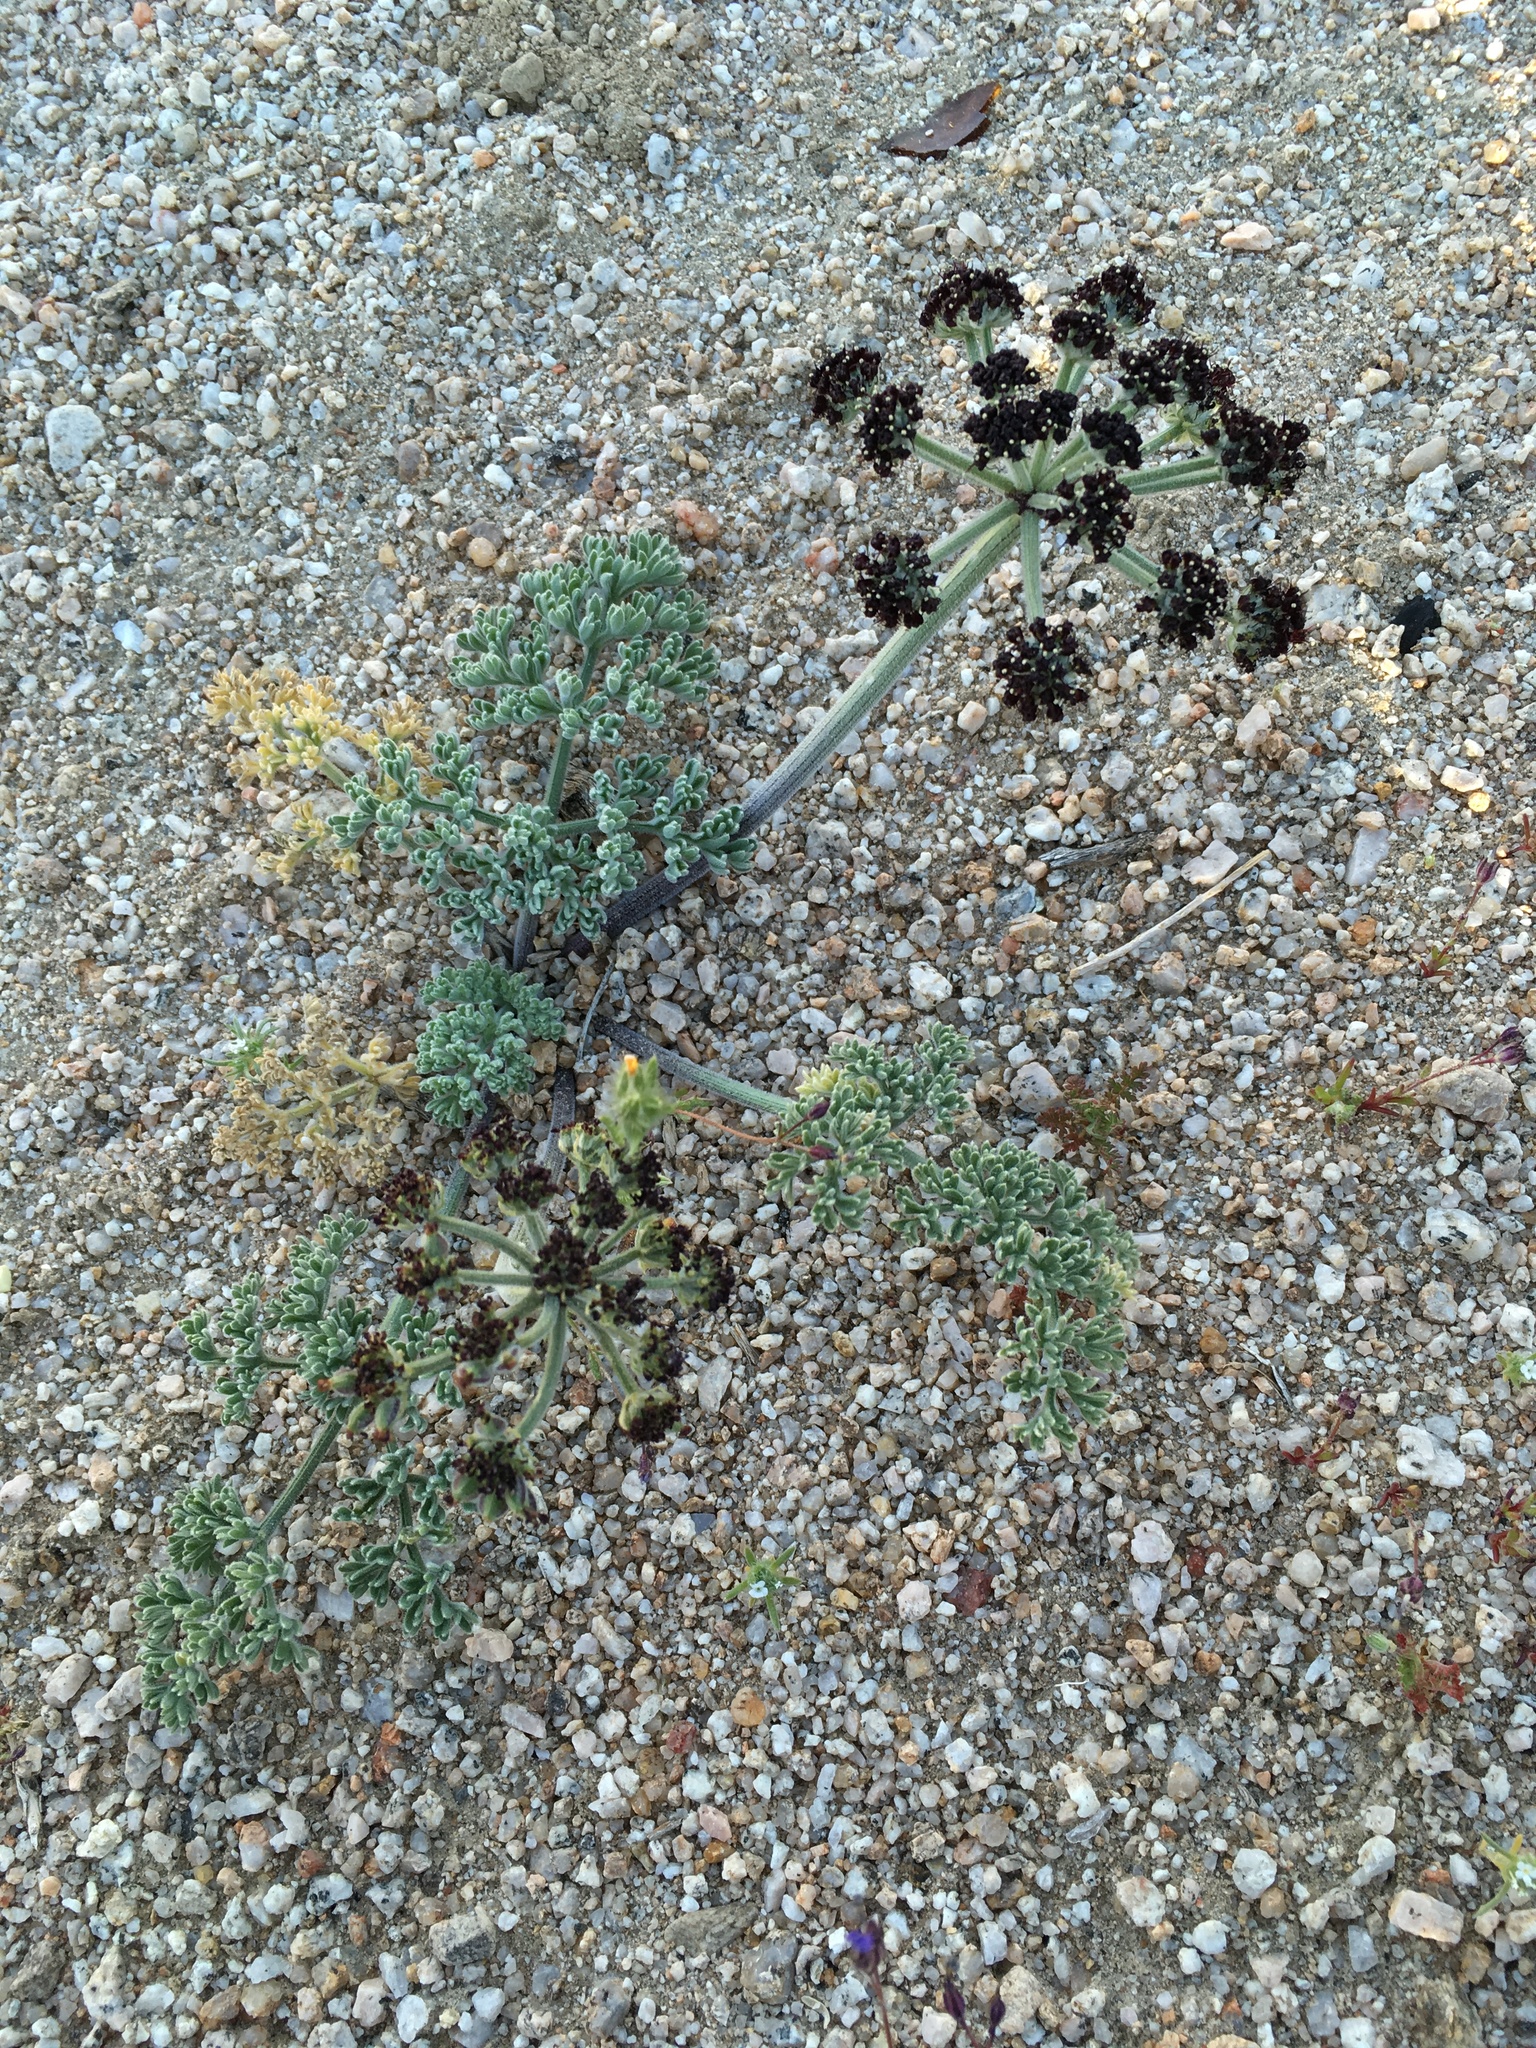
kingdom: Plantae
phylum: Tracheophyta
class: Magnoliopsida
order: Apiales
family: Apiaceae
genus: Lomatium
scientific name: Lomatium mohavense
